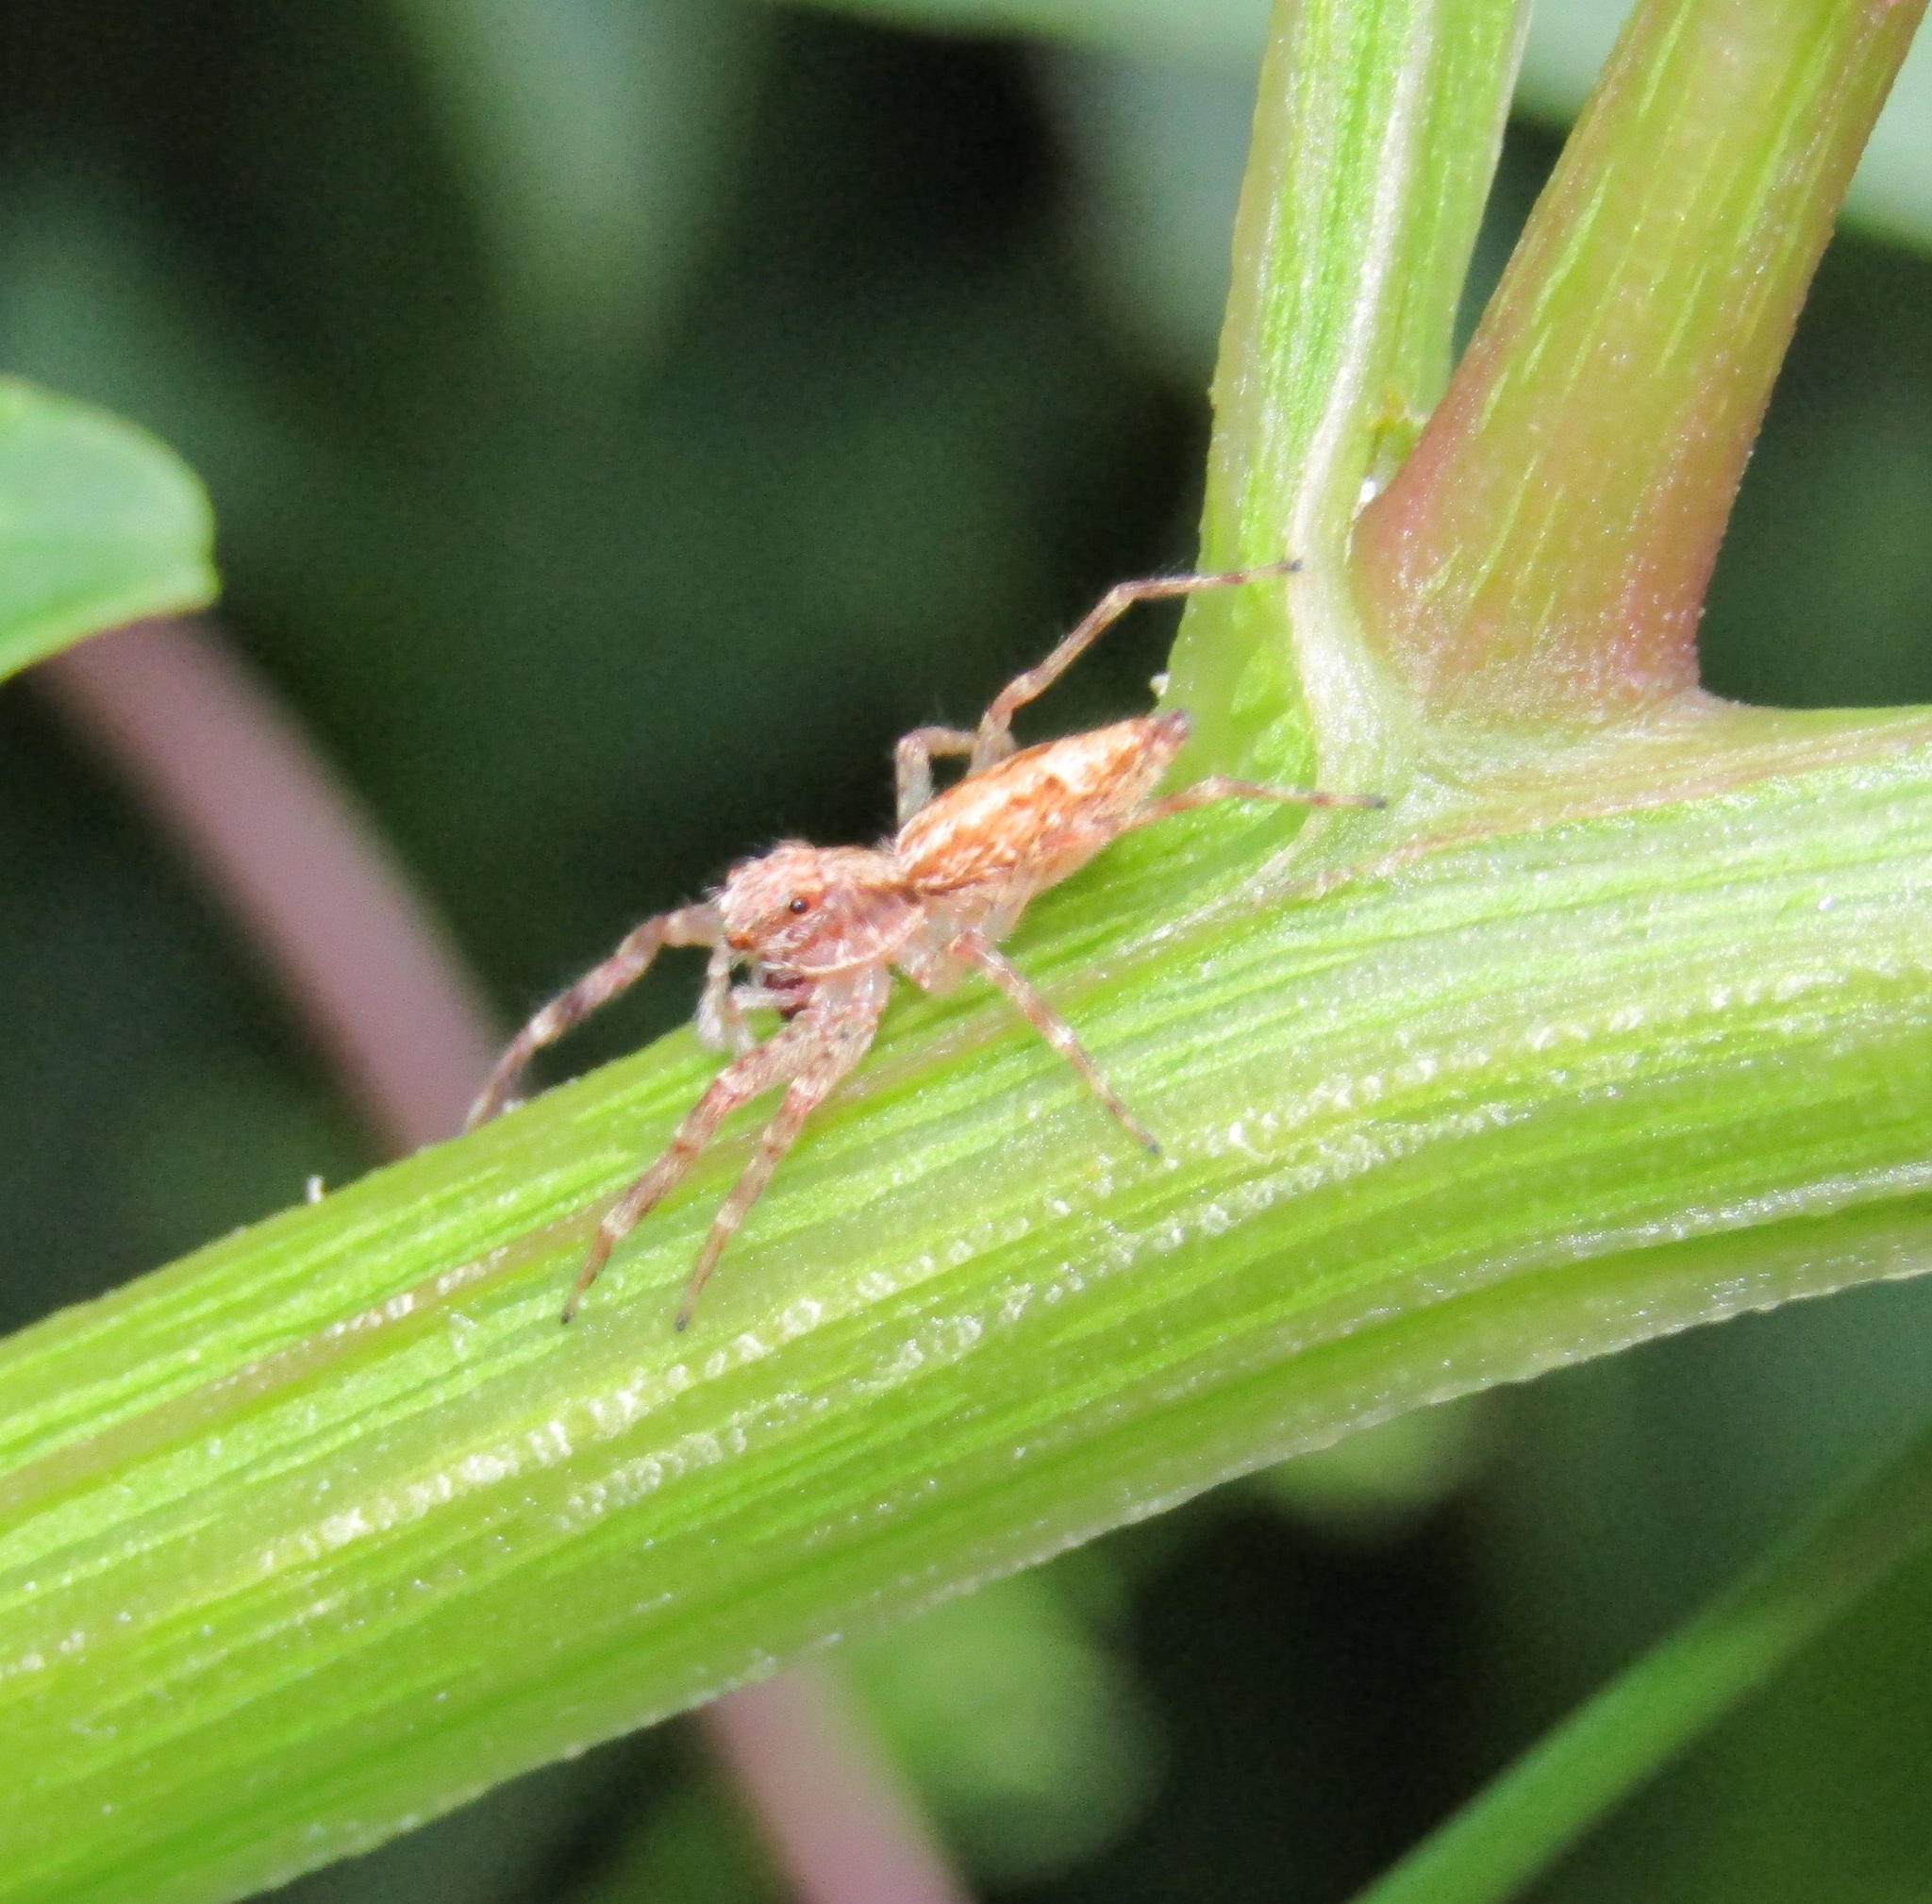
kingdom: Animalia
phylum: Arthropoda
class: Arachnida
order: Araneae
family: Salticidae
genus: Helpis
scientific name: Helpis minitabunda
